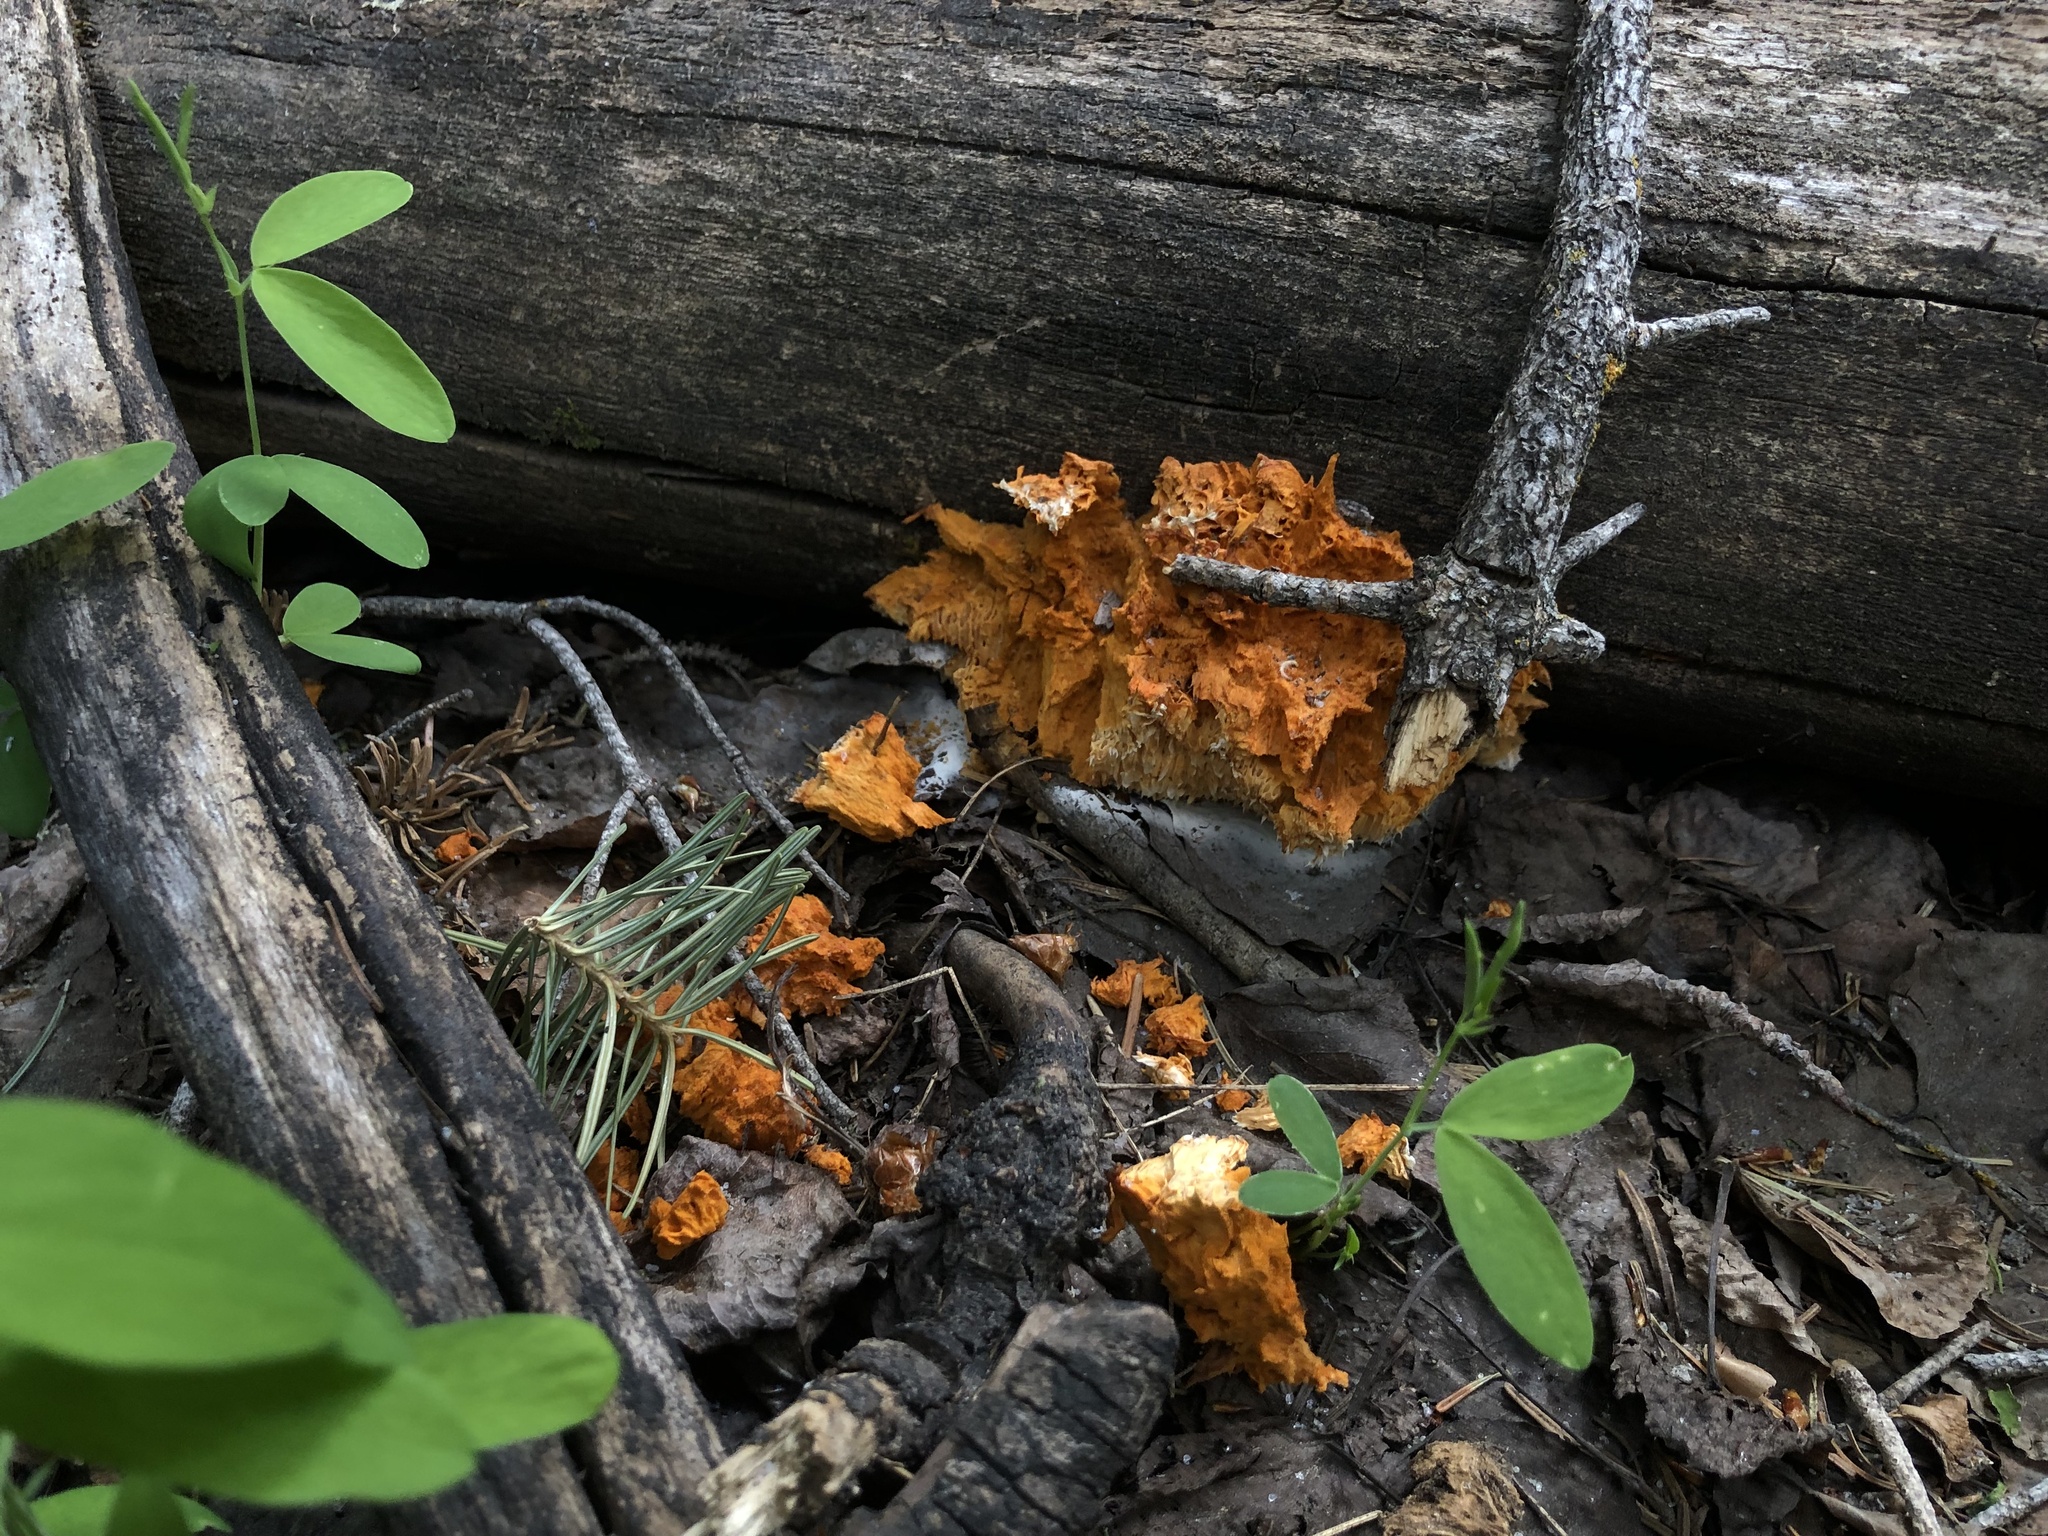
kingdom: Fungi
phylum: Basidiomycota
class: Agaricomycetes
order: Polyporales
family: Pycnoporellaceae
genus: Pycnoporellus
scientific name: Pycnoporellus alboluteus
